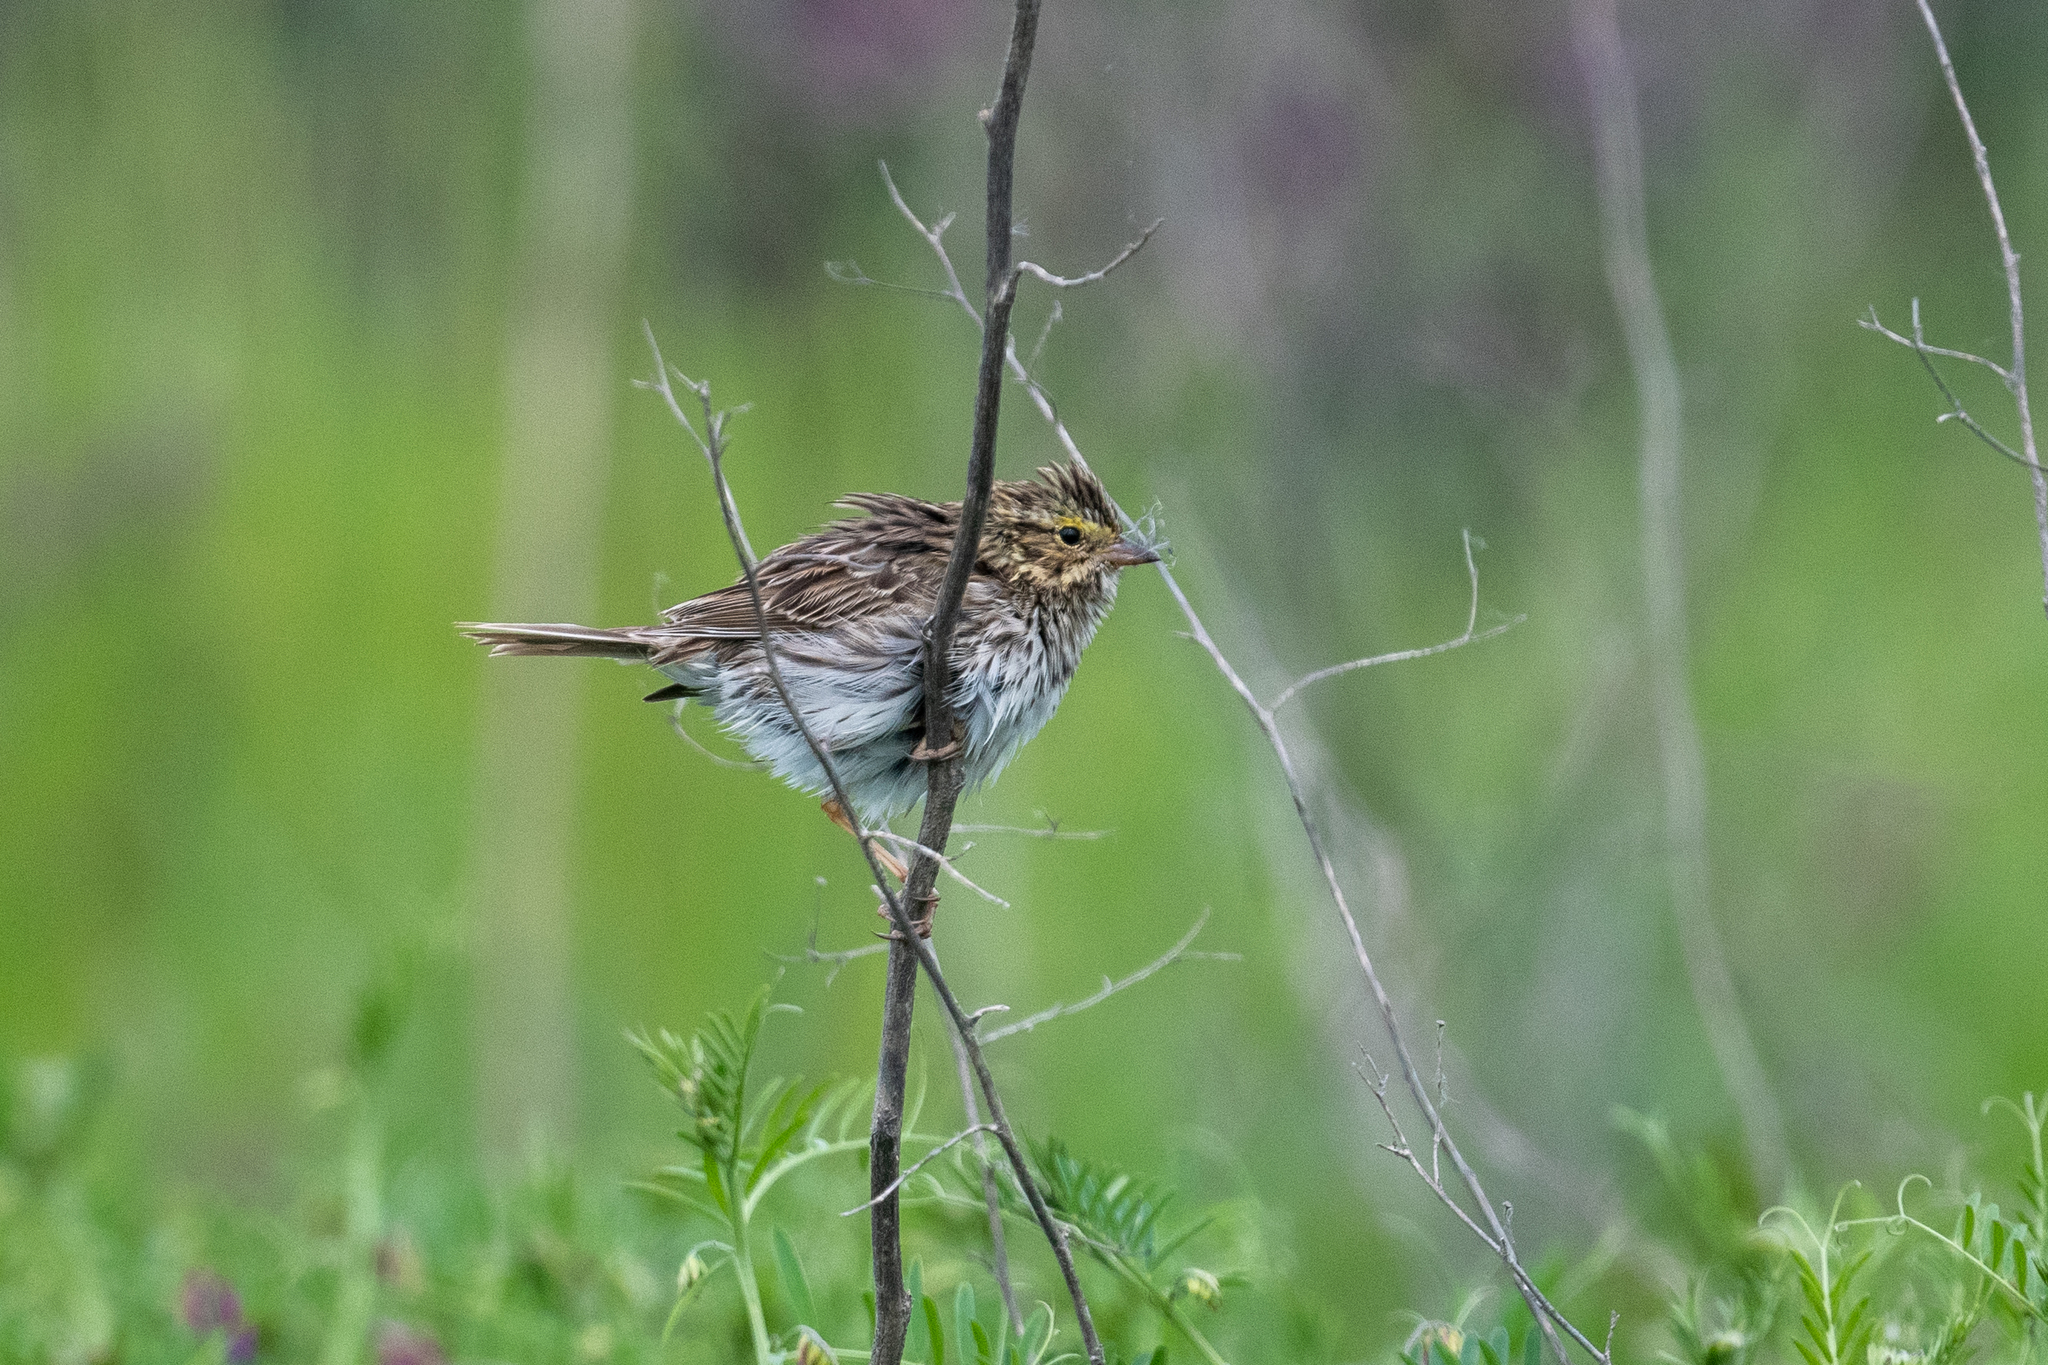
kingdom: Animalia
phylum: Chordata
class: Aves
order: Passeriformes
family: Passerellidae
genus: Passerculus
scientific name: Passerculus sandwichensis
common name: Savannah sparrow
